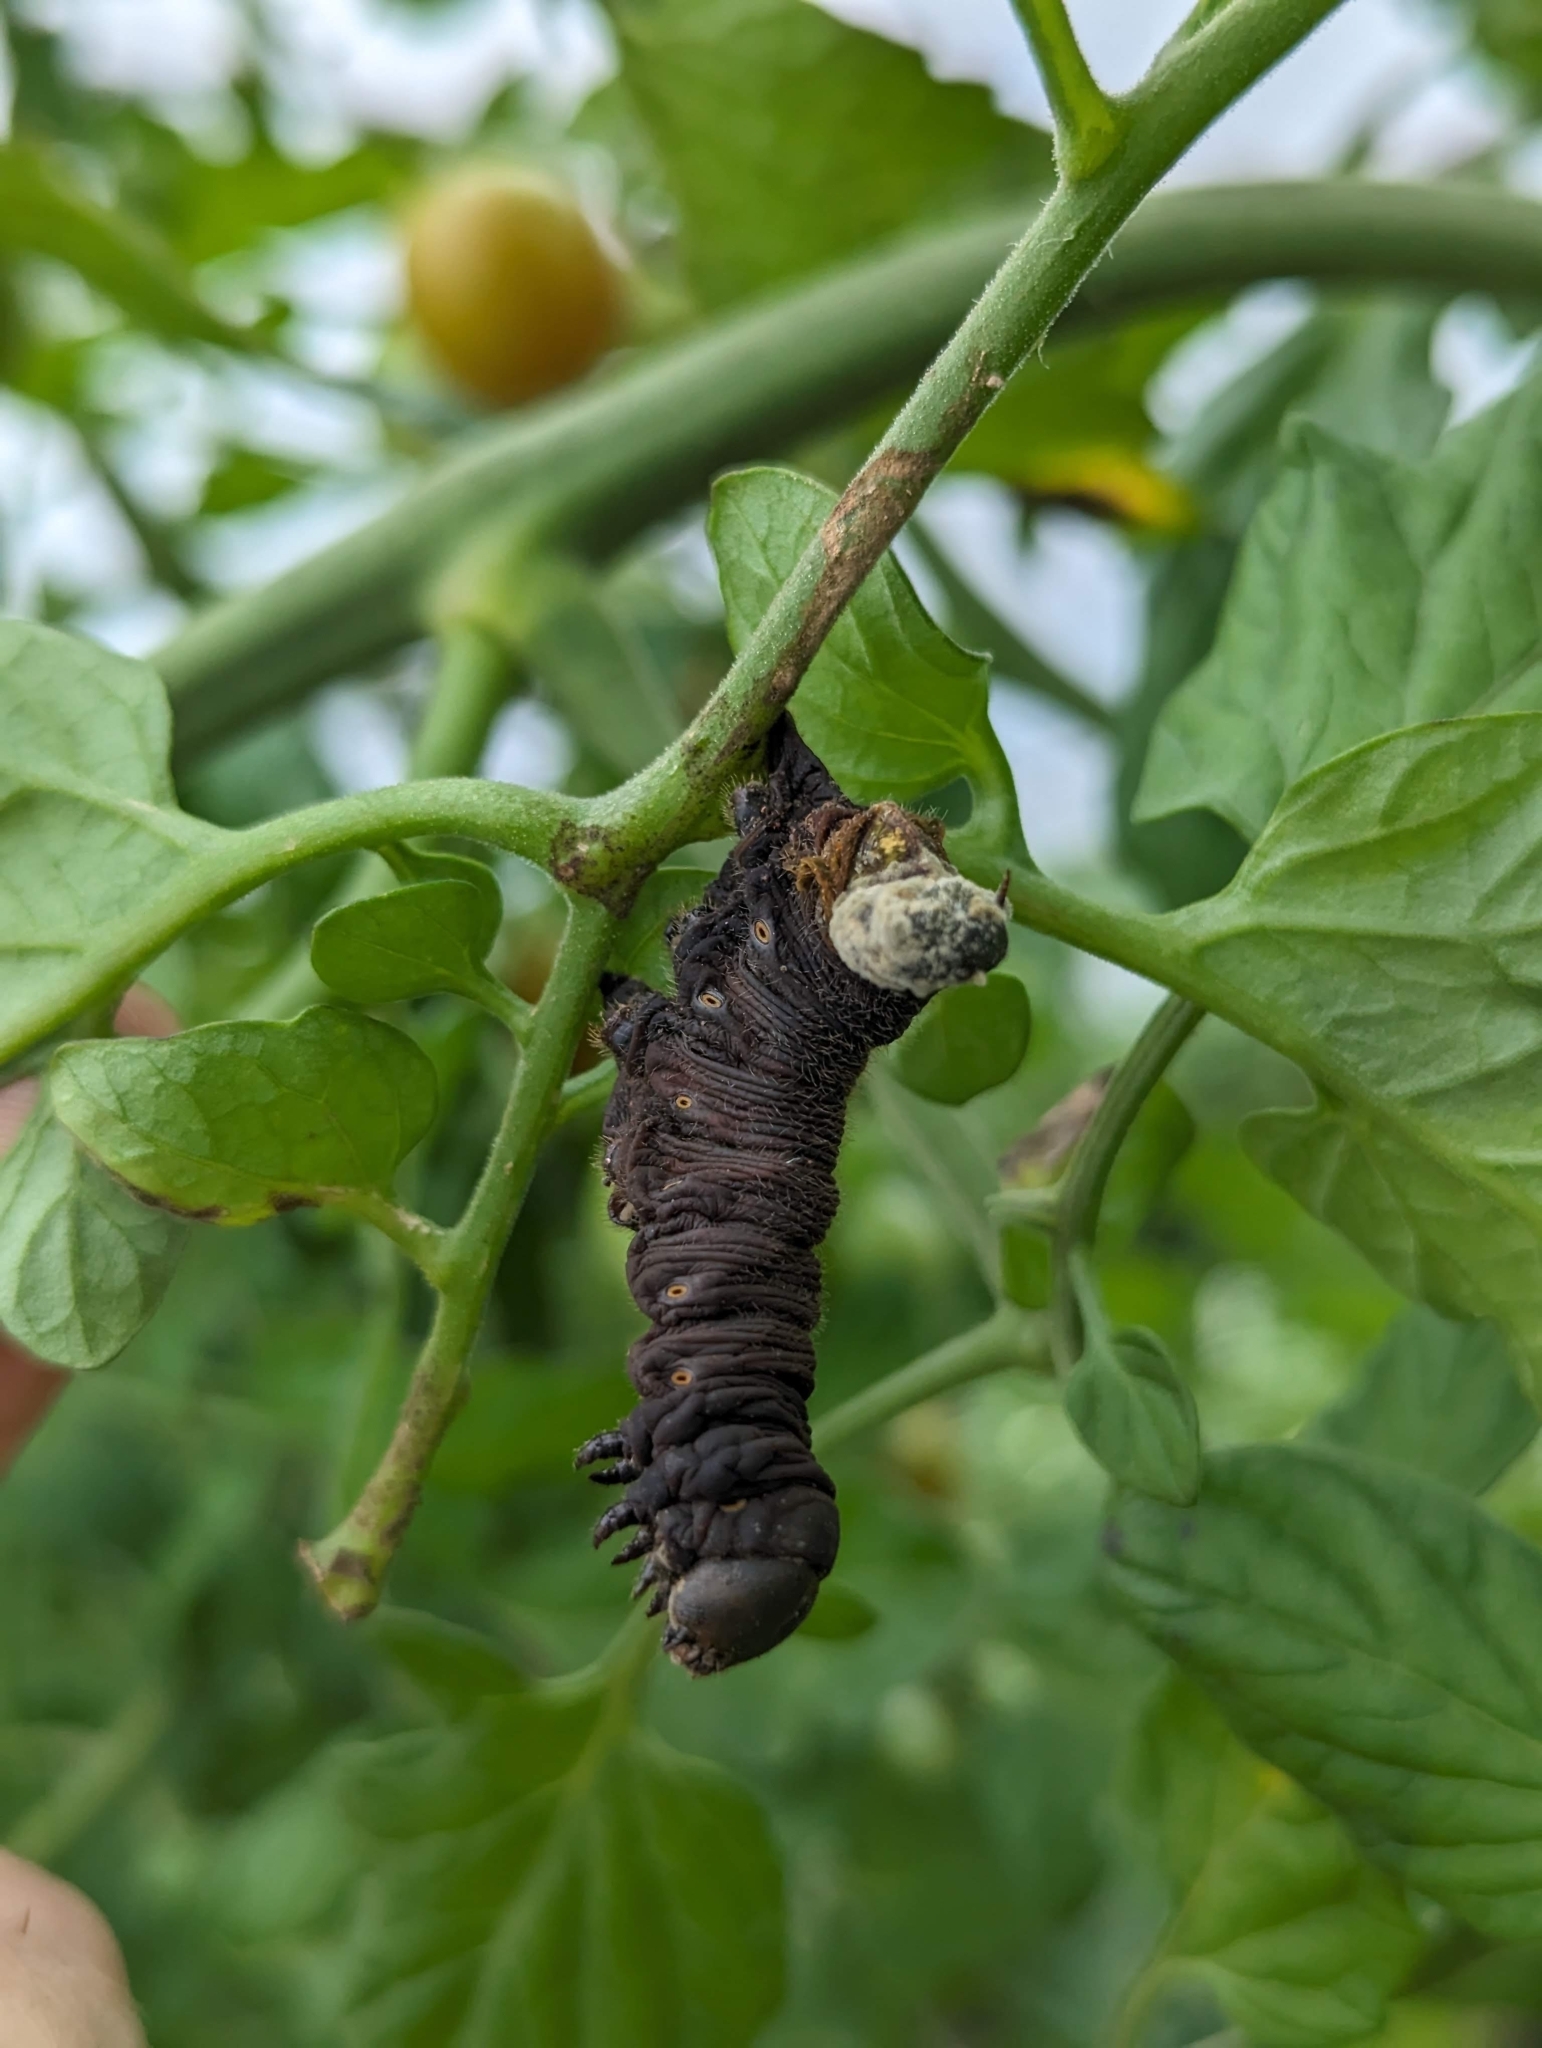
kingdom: Animalia
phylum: Arthropoda
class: Insecta
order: Lepidoptera
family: Sphingidae
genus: Manduca
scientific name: Manduca sexta
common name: Carolina sphinx
